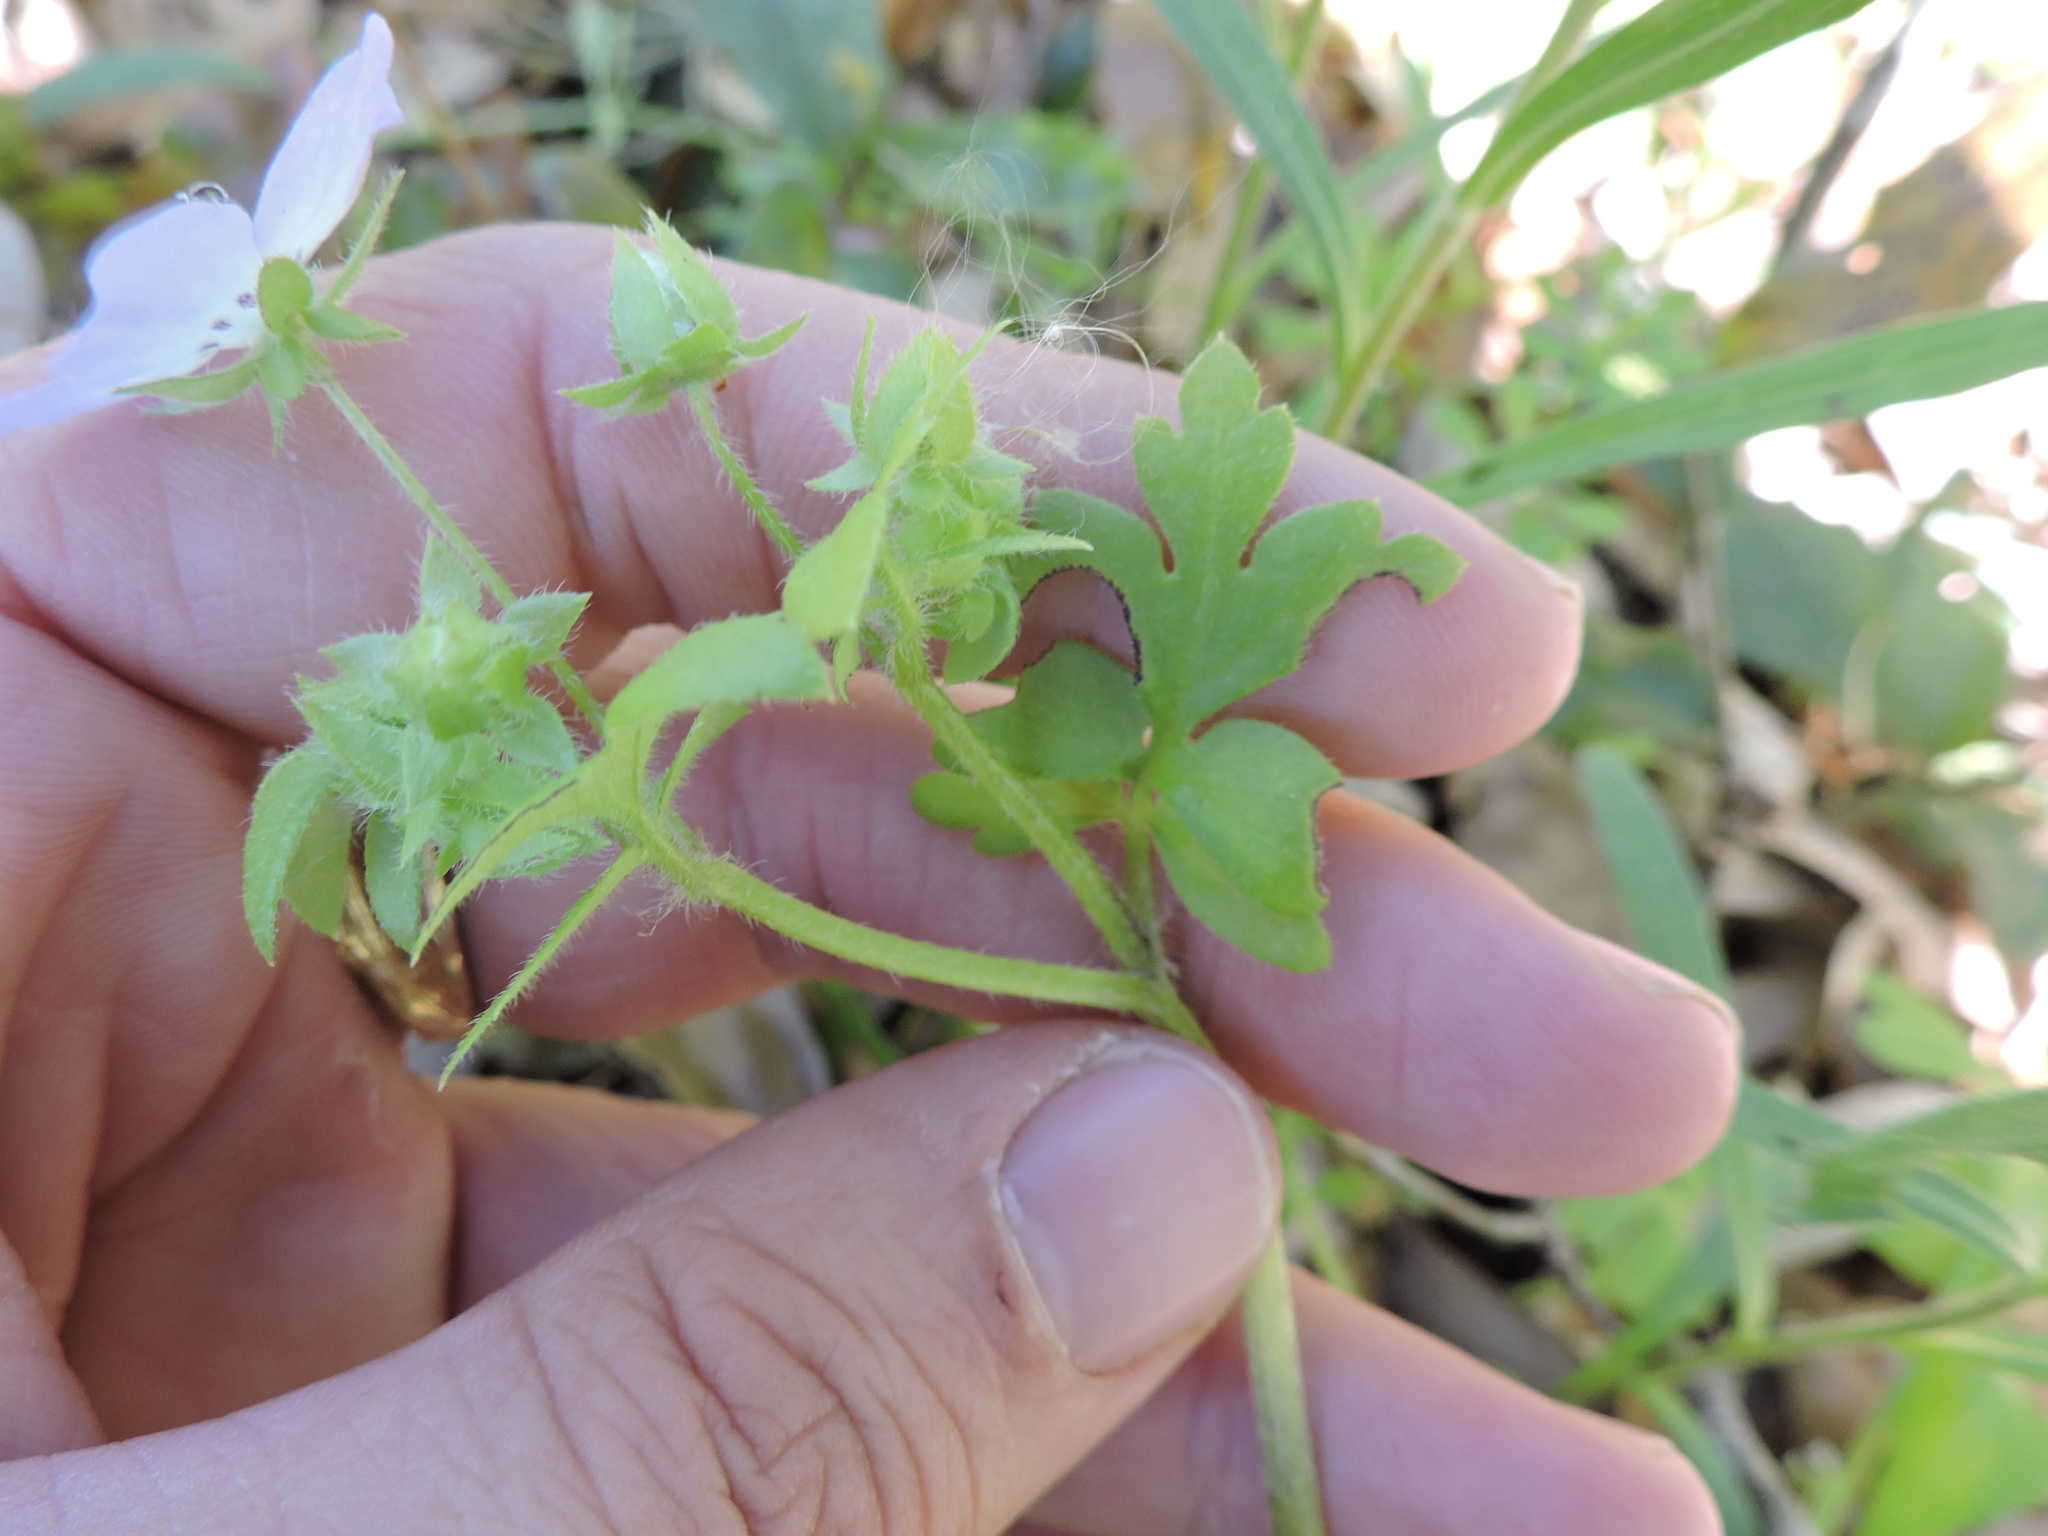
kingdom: Plantae
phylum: Tracheophyta
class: Magnoliopsida
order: Boraginales
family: Hydrophyllaceae
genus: Nemophila
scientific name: Nemophila phacelioides
